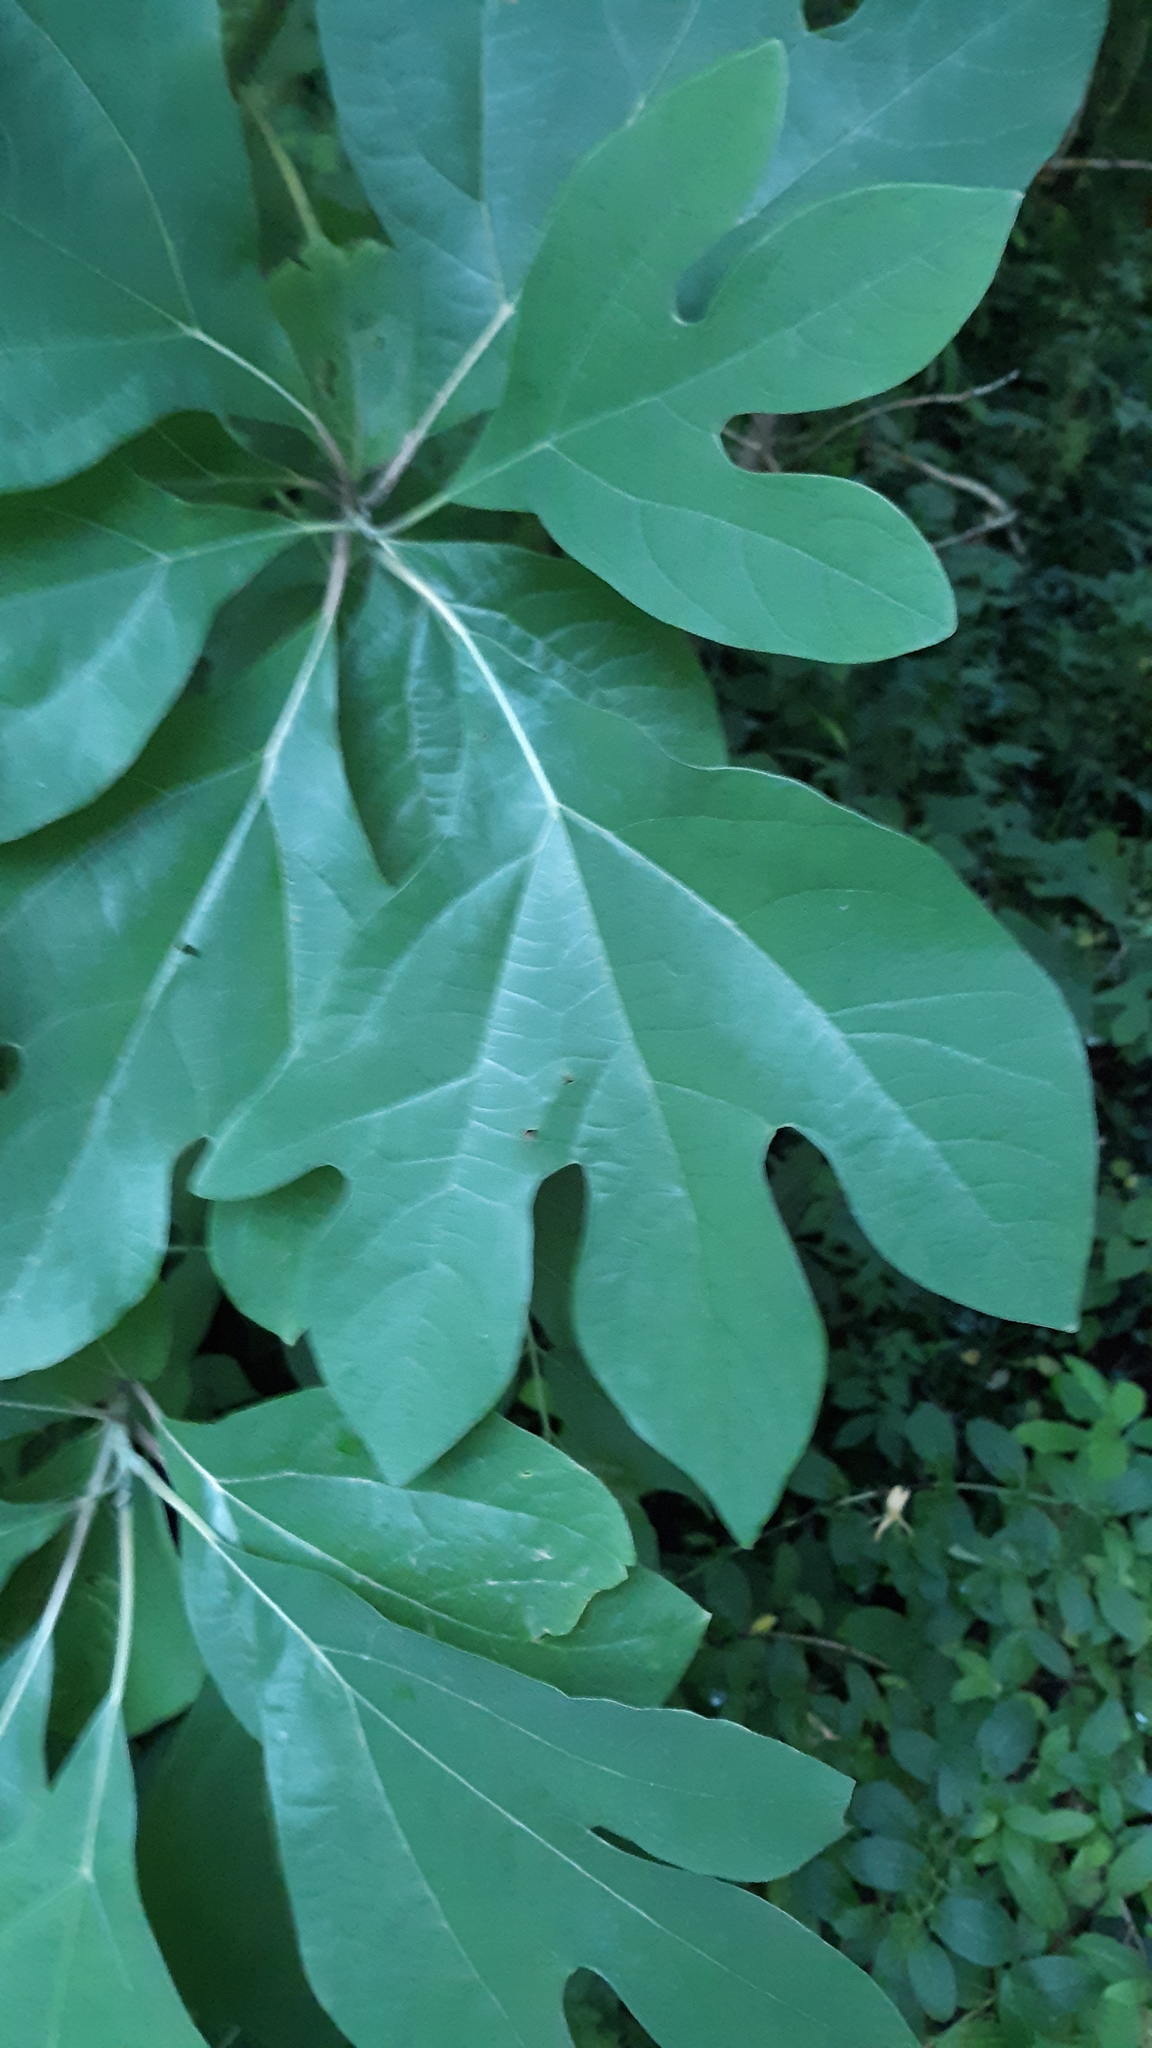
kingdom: Plantae
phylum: Tracheophyta
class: Magnoliopsida
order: Laurales
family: Lauraceae
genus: Sassafras
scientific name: Sassafras albidum
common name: Sassafras
